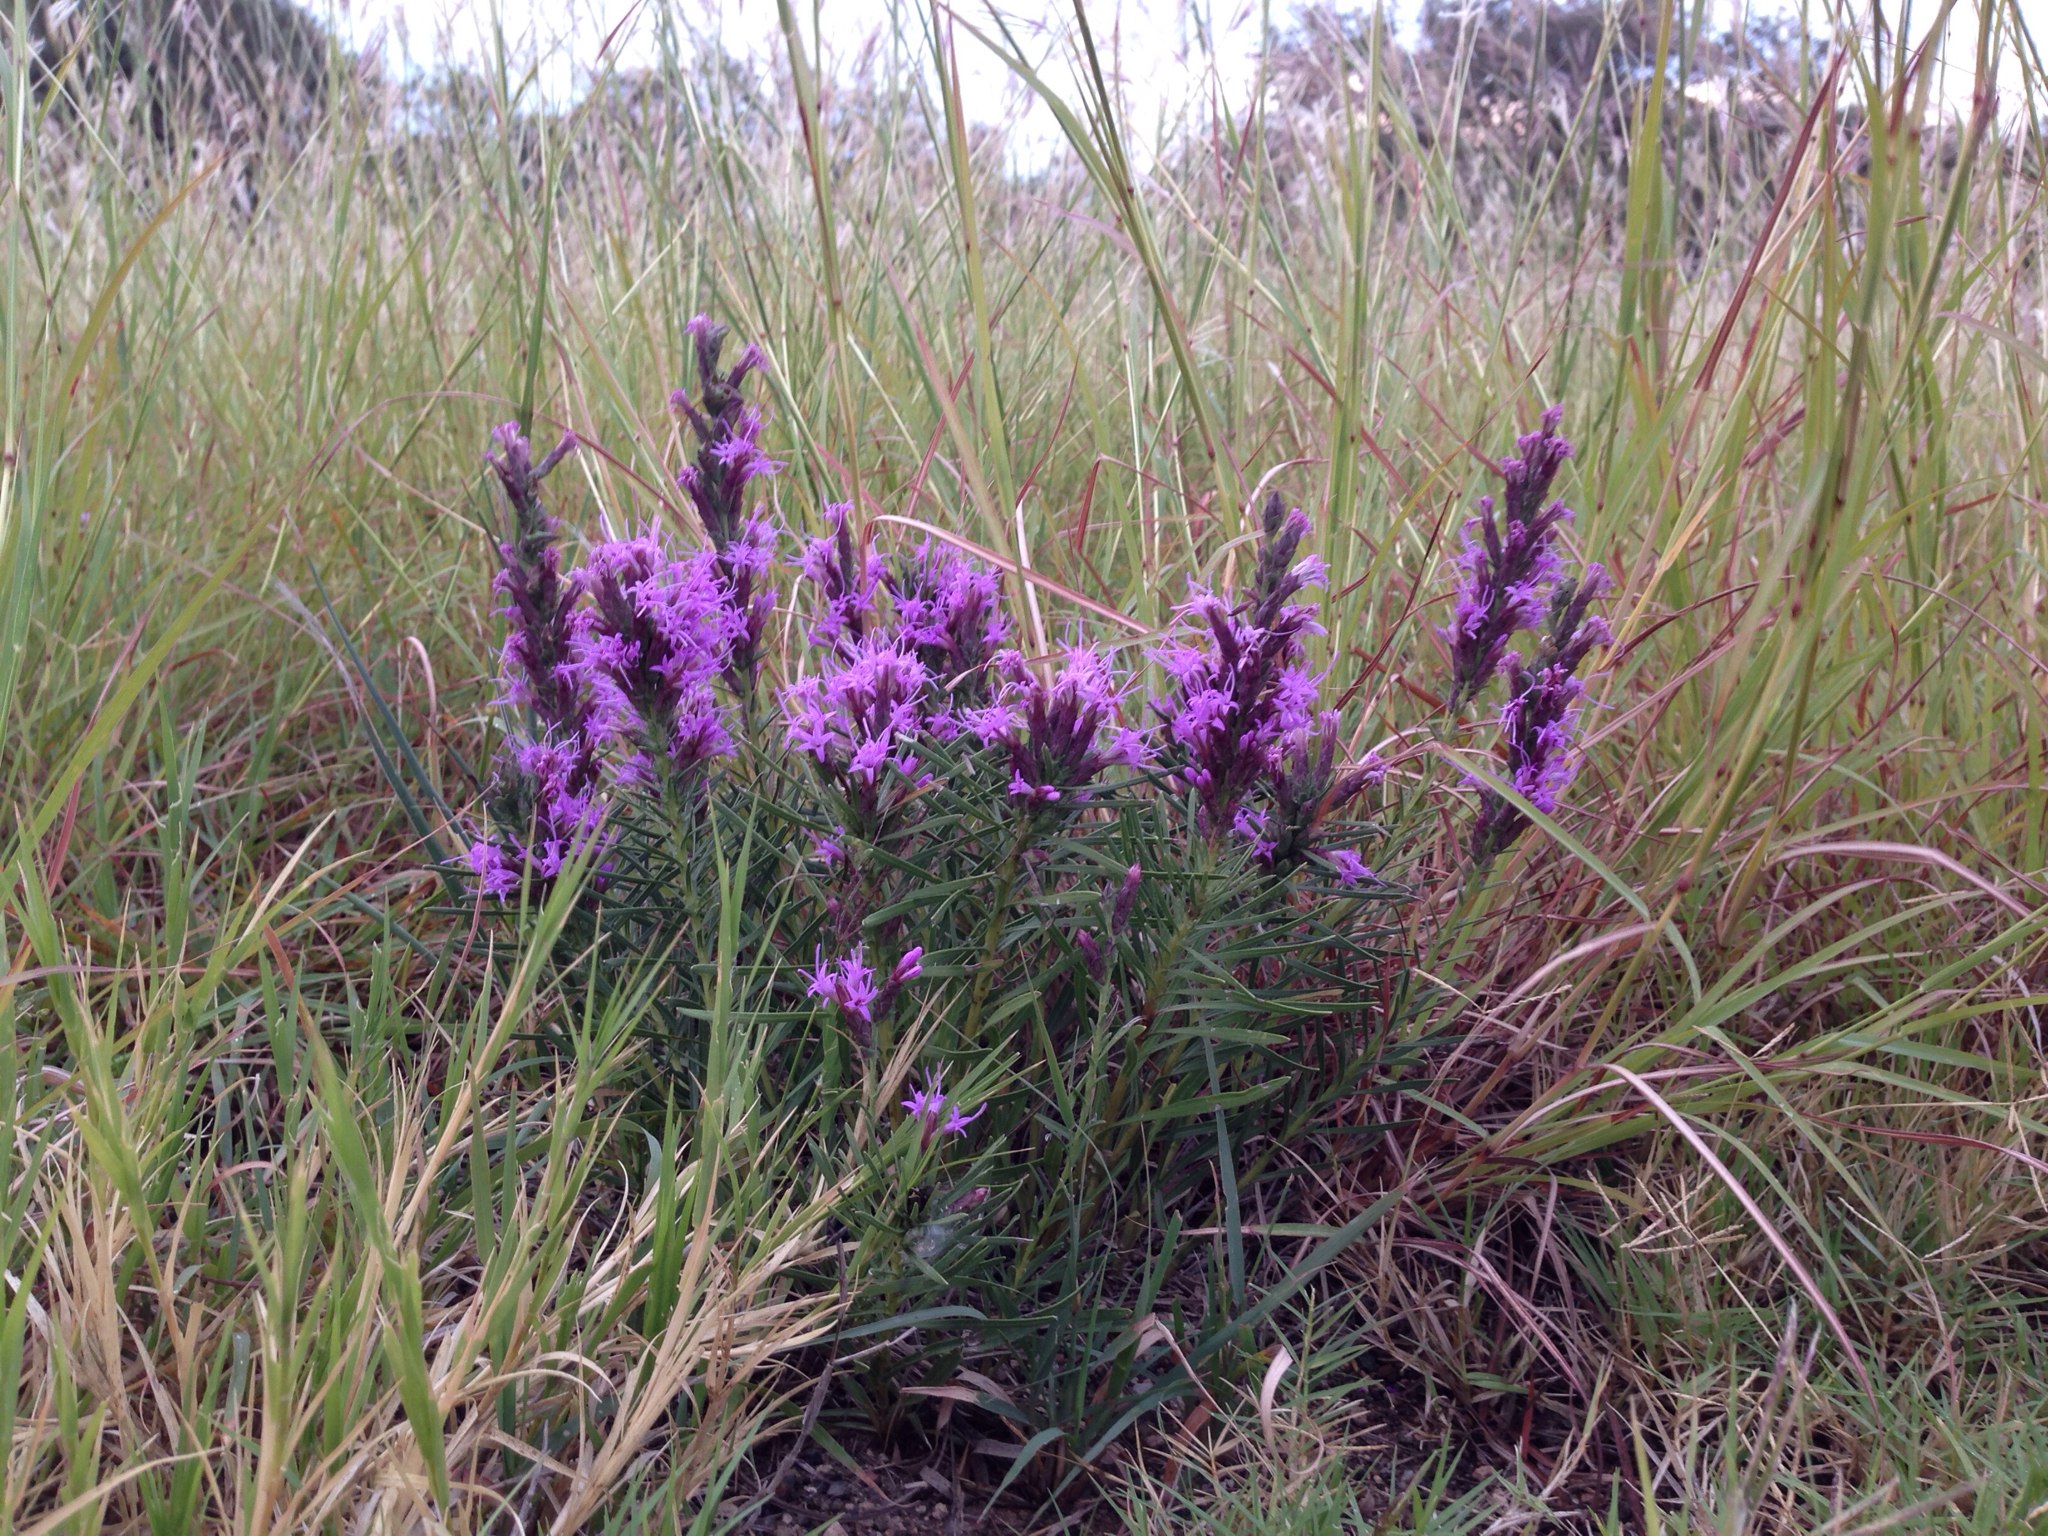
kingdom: Plantae
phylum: Tracheophyta
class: Magnoliopsida
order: Asterales
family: Asteraceae
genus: Liatris
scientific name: Liatris punctata
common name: Dotted gayfeather
